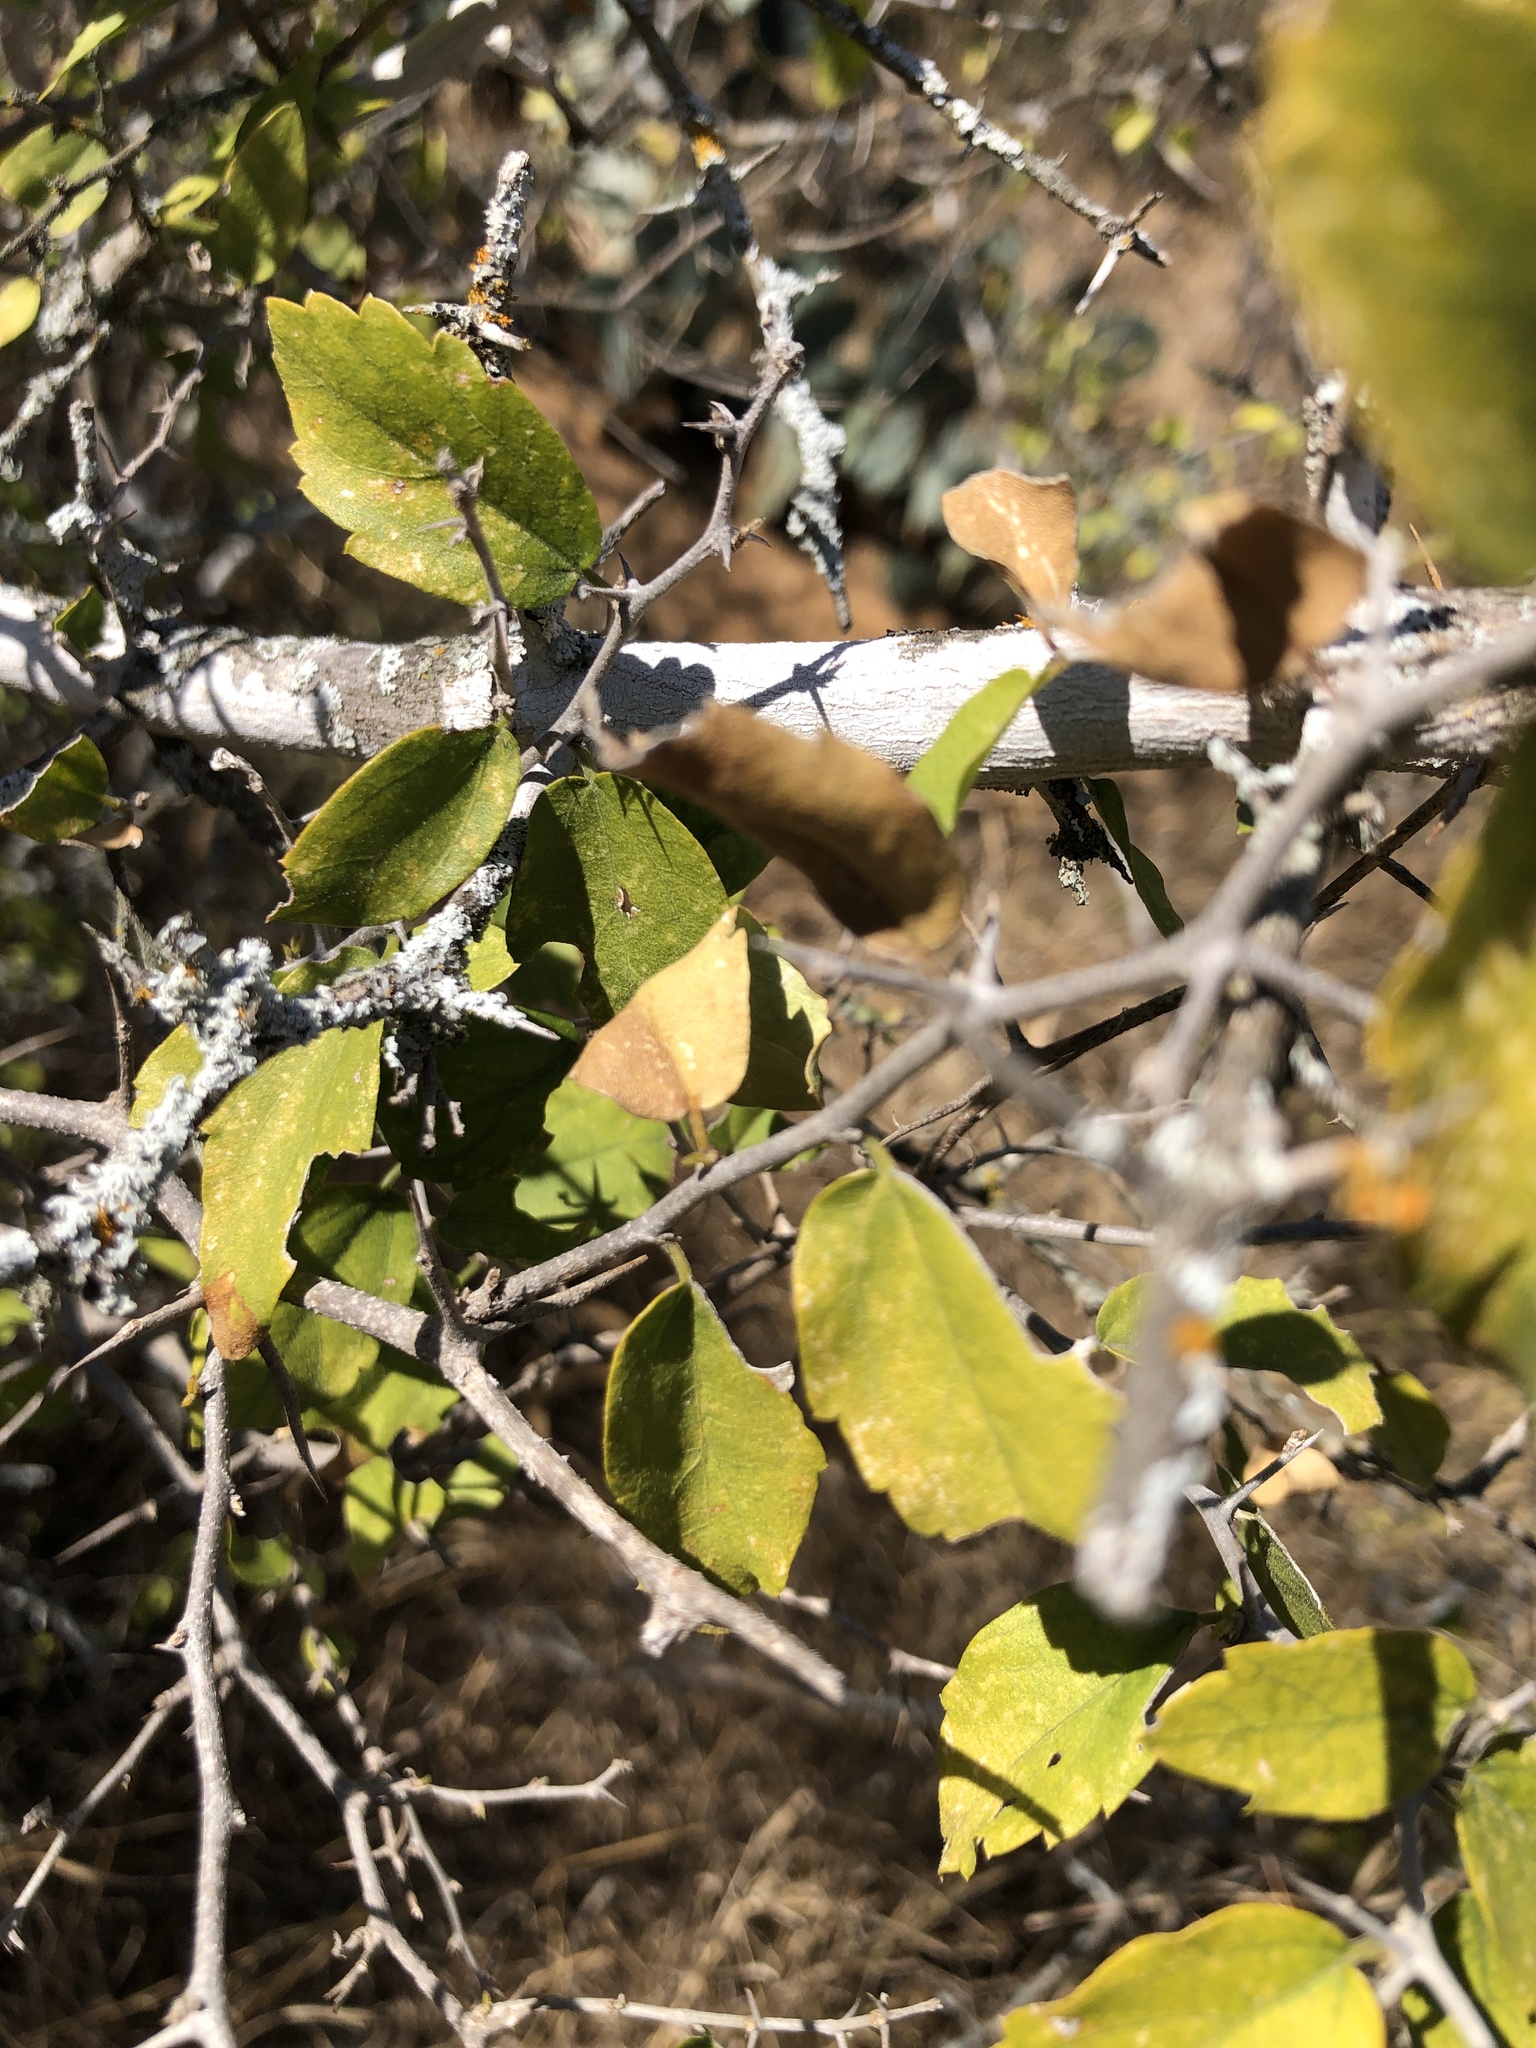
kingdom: Plantae
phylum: Tracheophyta
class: Magnoliopsida
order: Rosales
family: Cannabaceae
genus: Celtis
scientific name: Celtis pallida
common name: Desert hackberry
